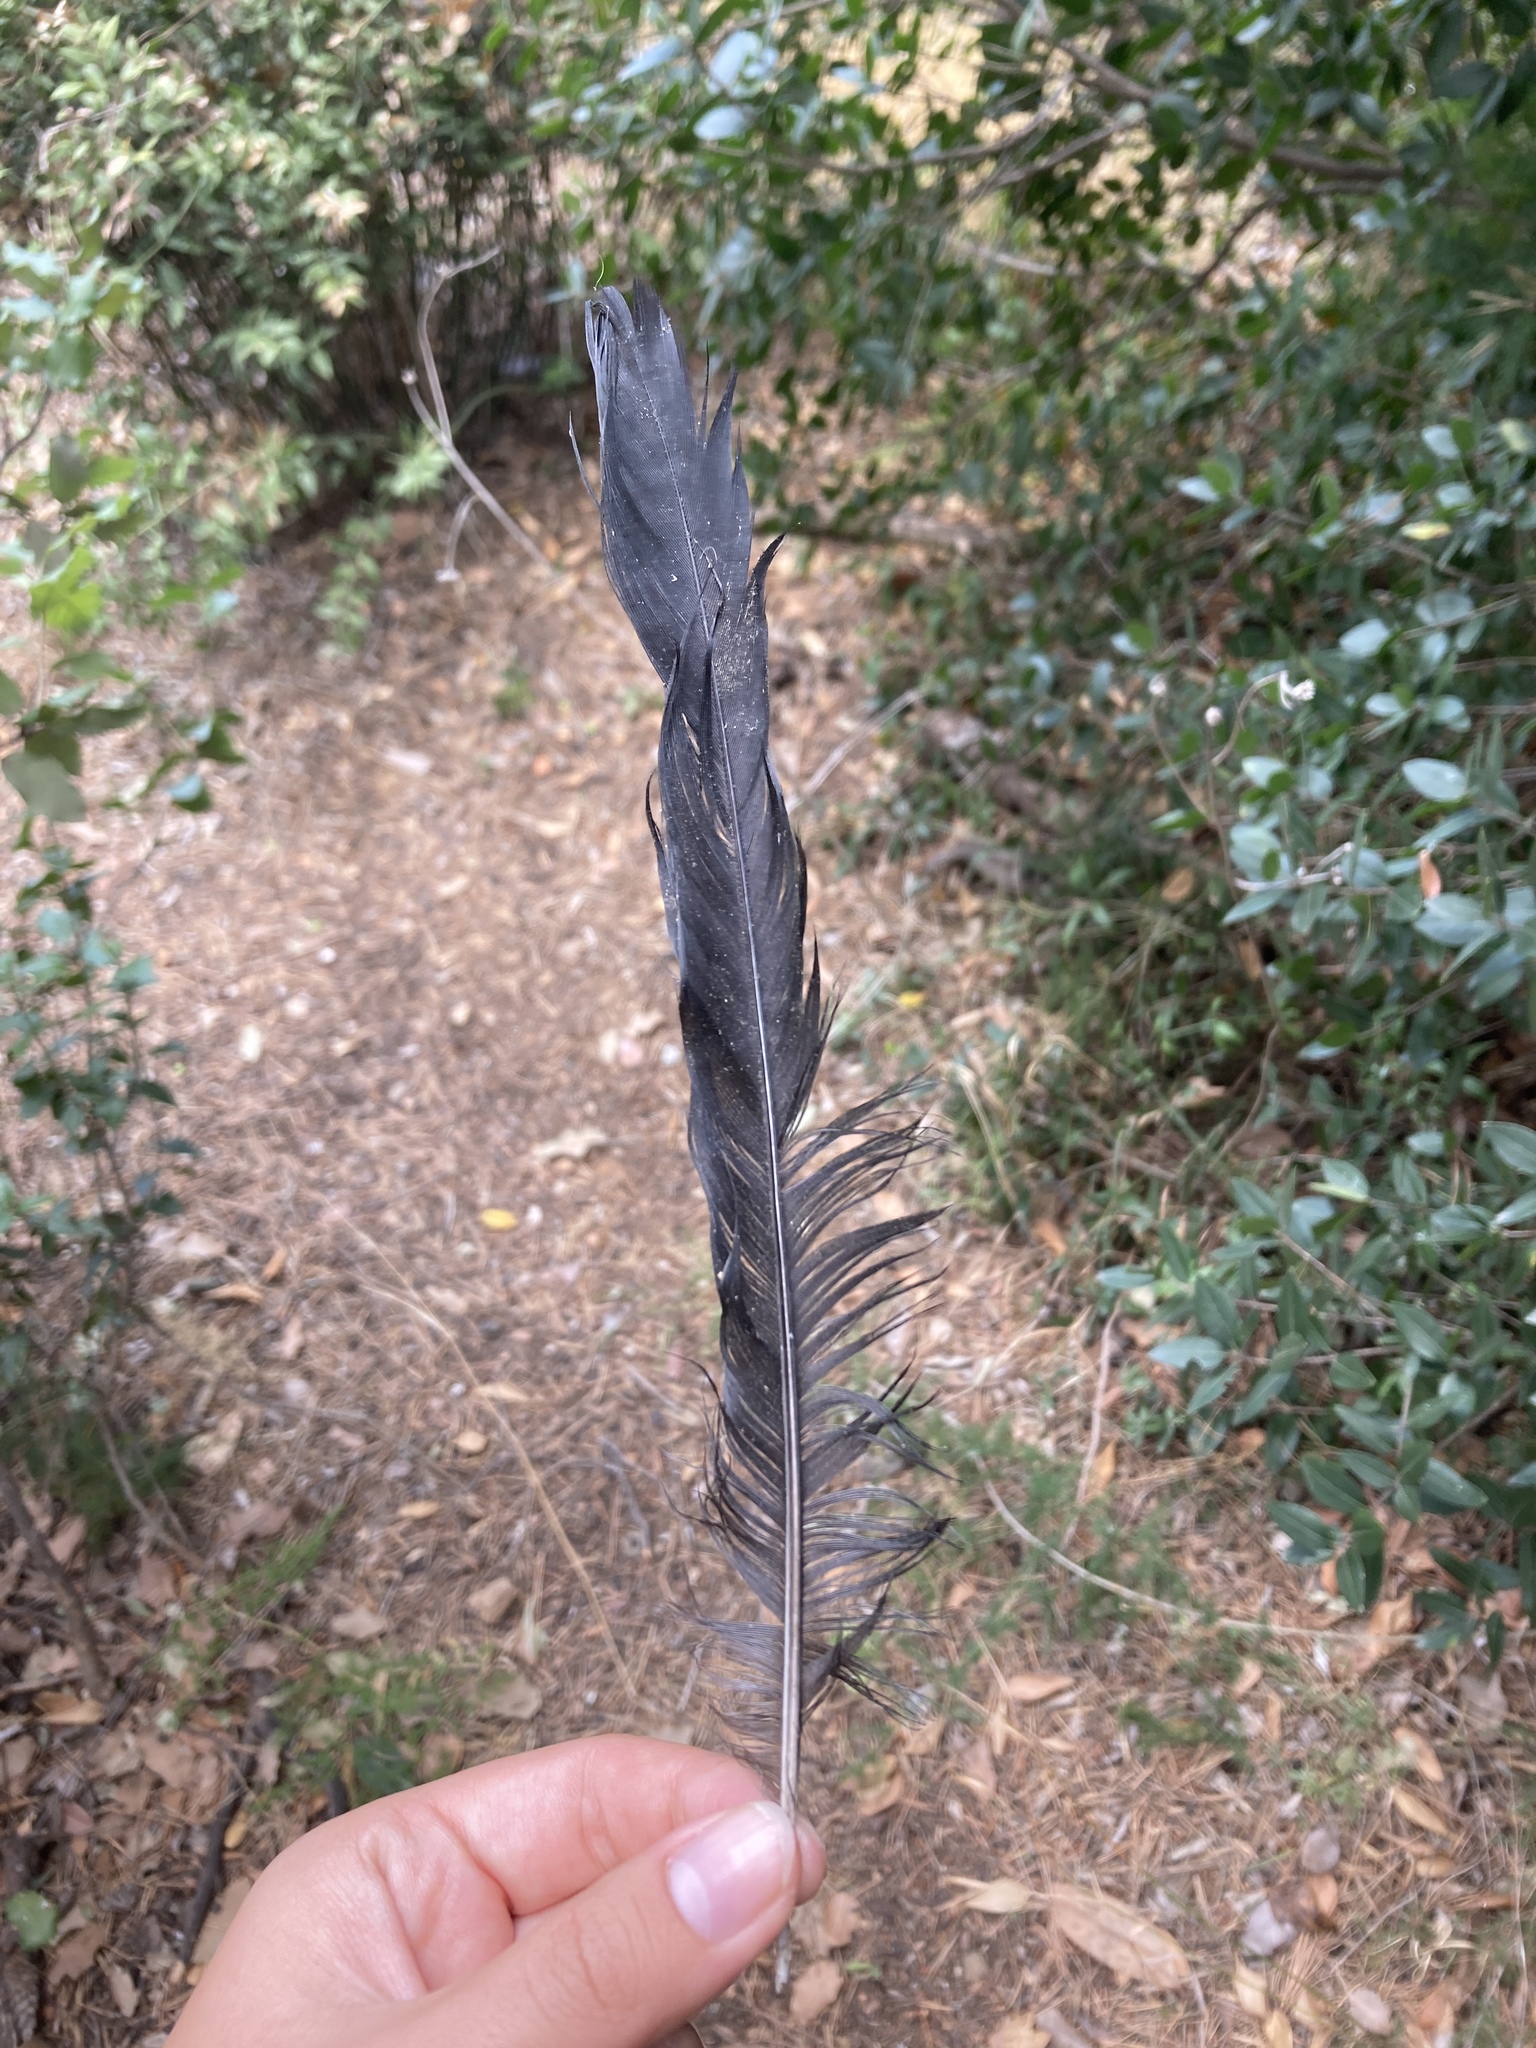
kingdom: Animalia
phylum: Chordata
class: Aves
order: Passeriformes
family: Corvidae
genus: Pica
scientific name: Pica pica
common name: Eurasian magpie
